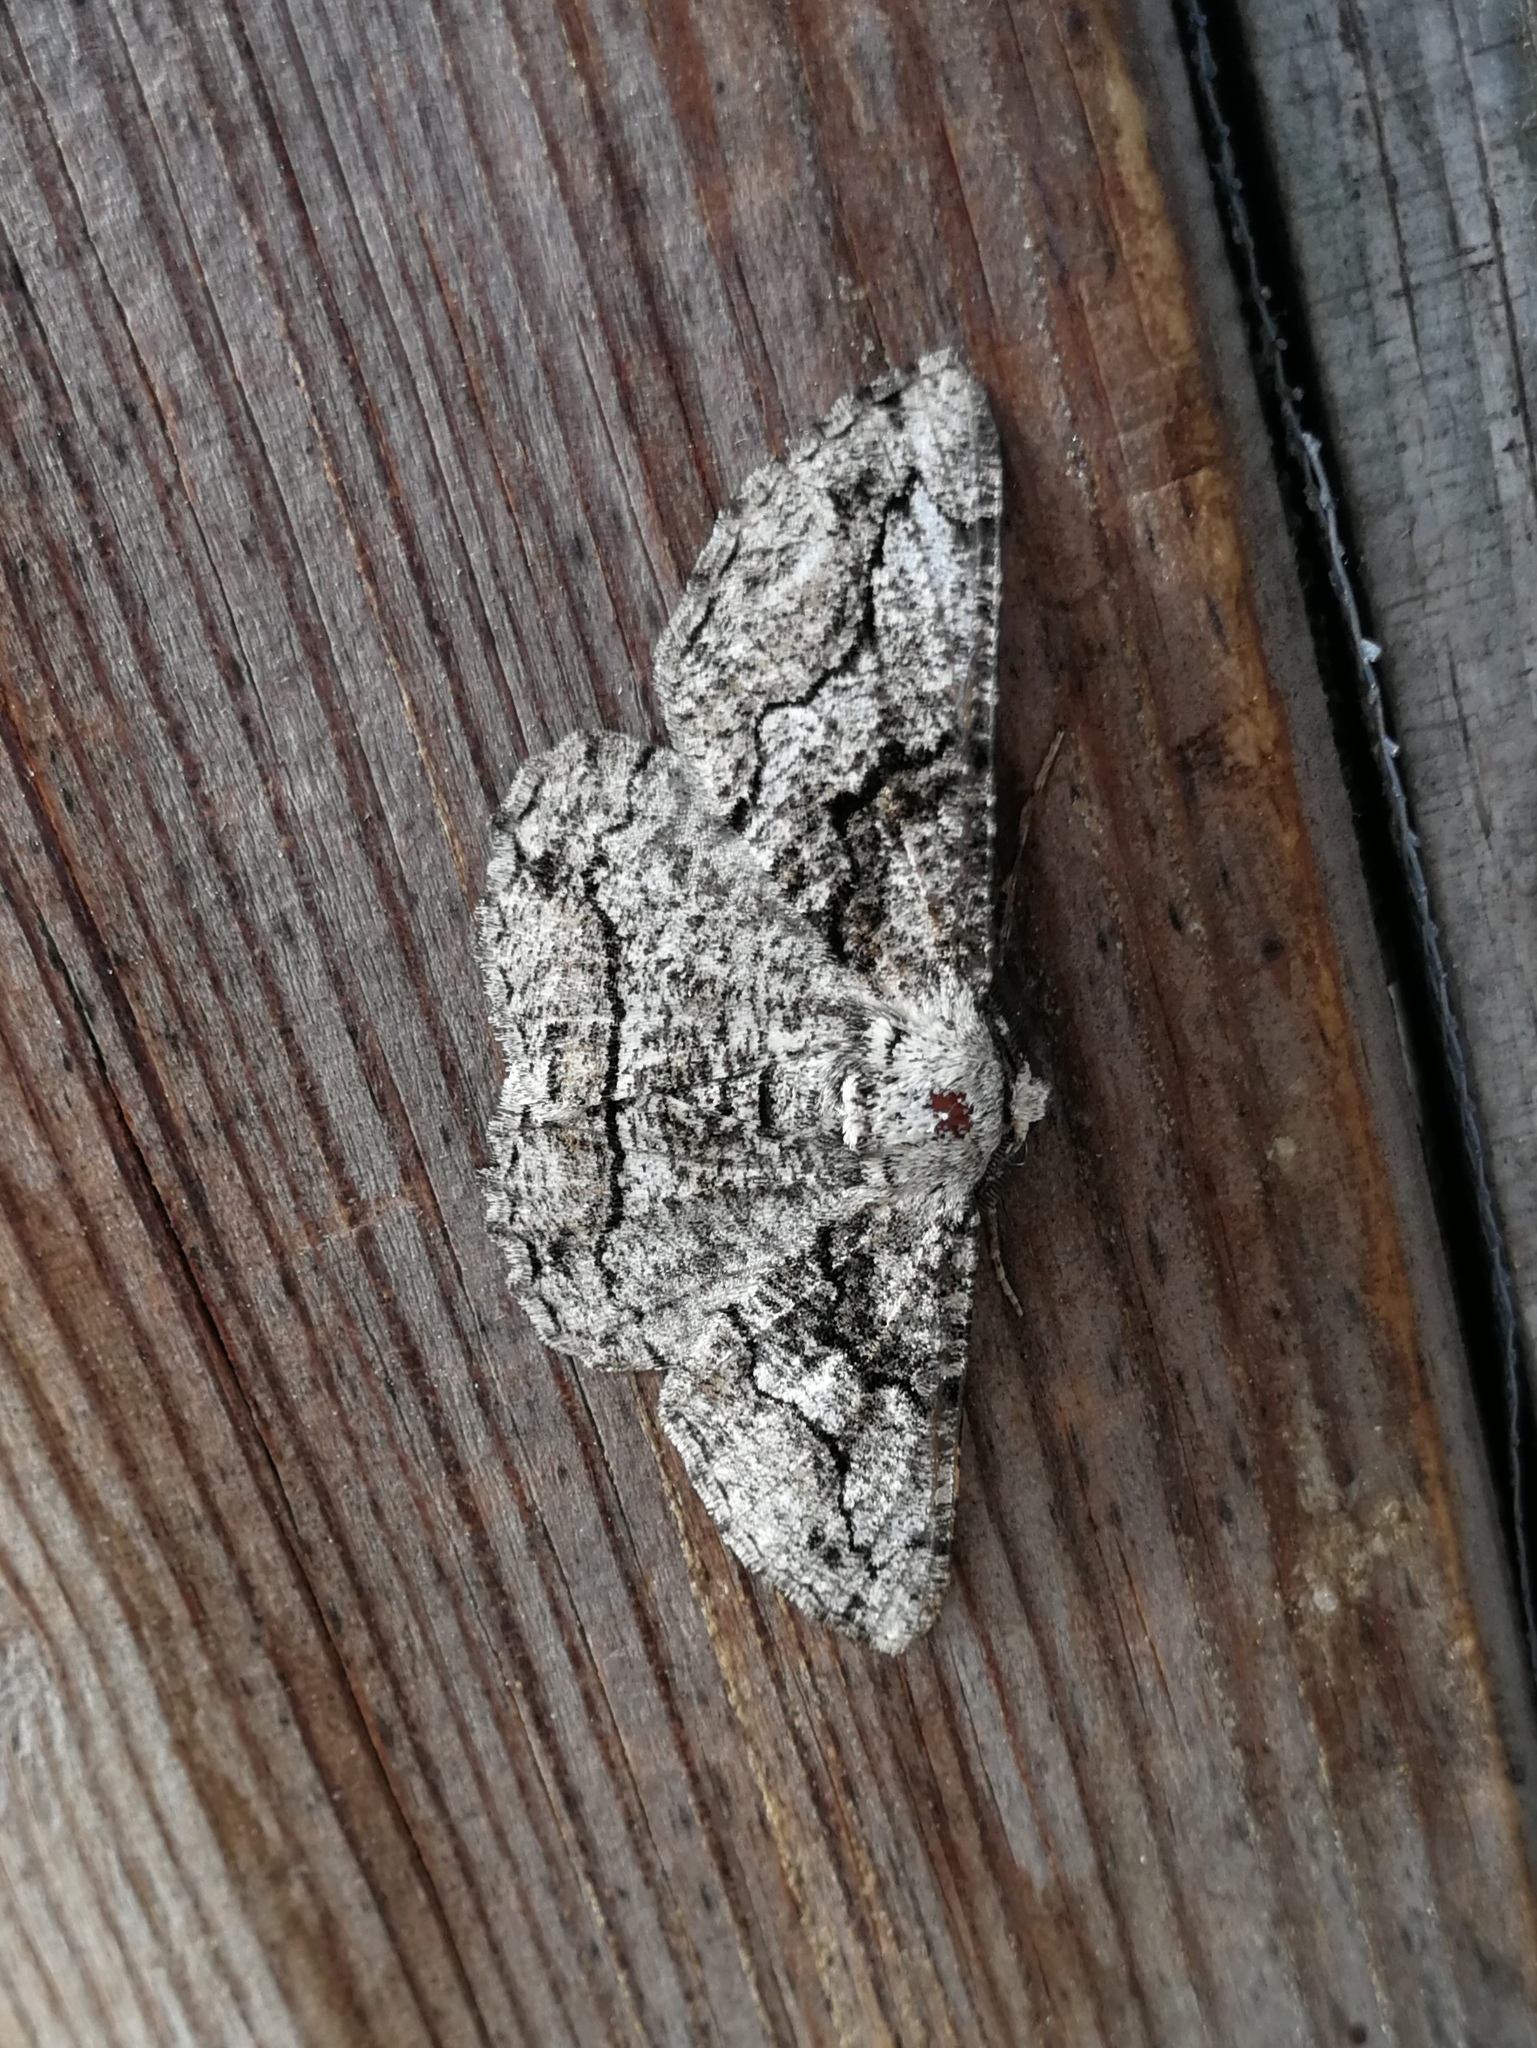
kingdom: Animalia
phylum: Arthropoda
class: Insecta
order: Lepidoptera
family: Geometridae
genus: Synopsia
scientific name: Synopsia sociaria
